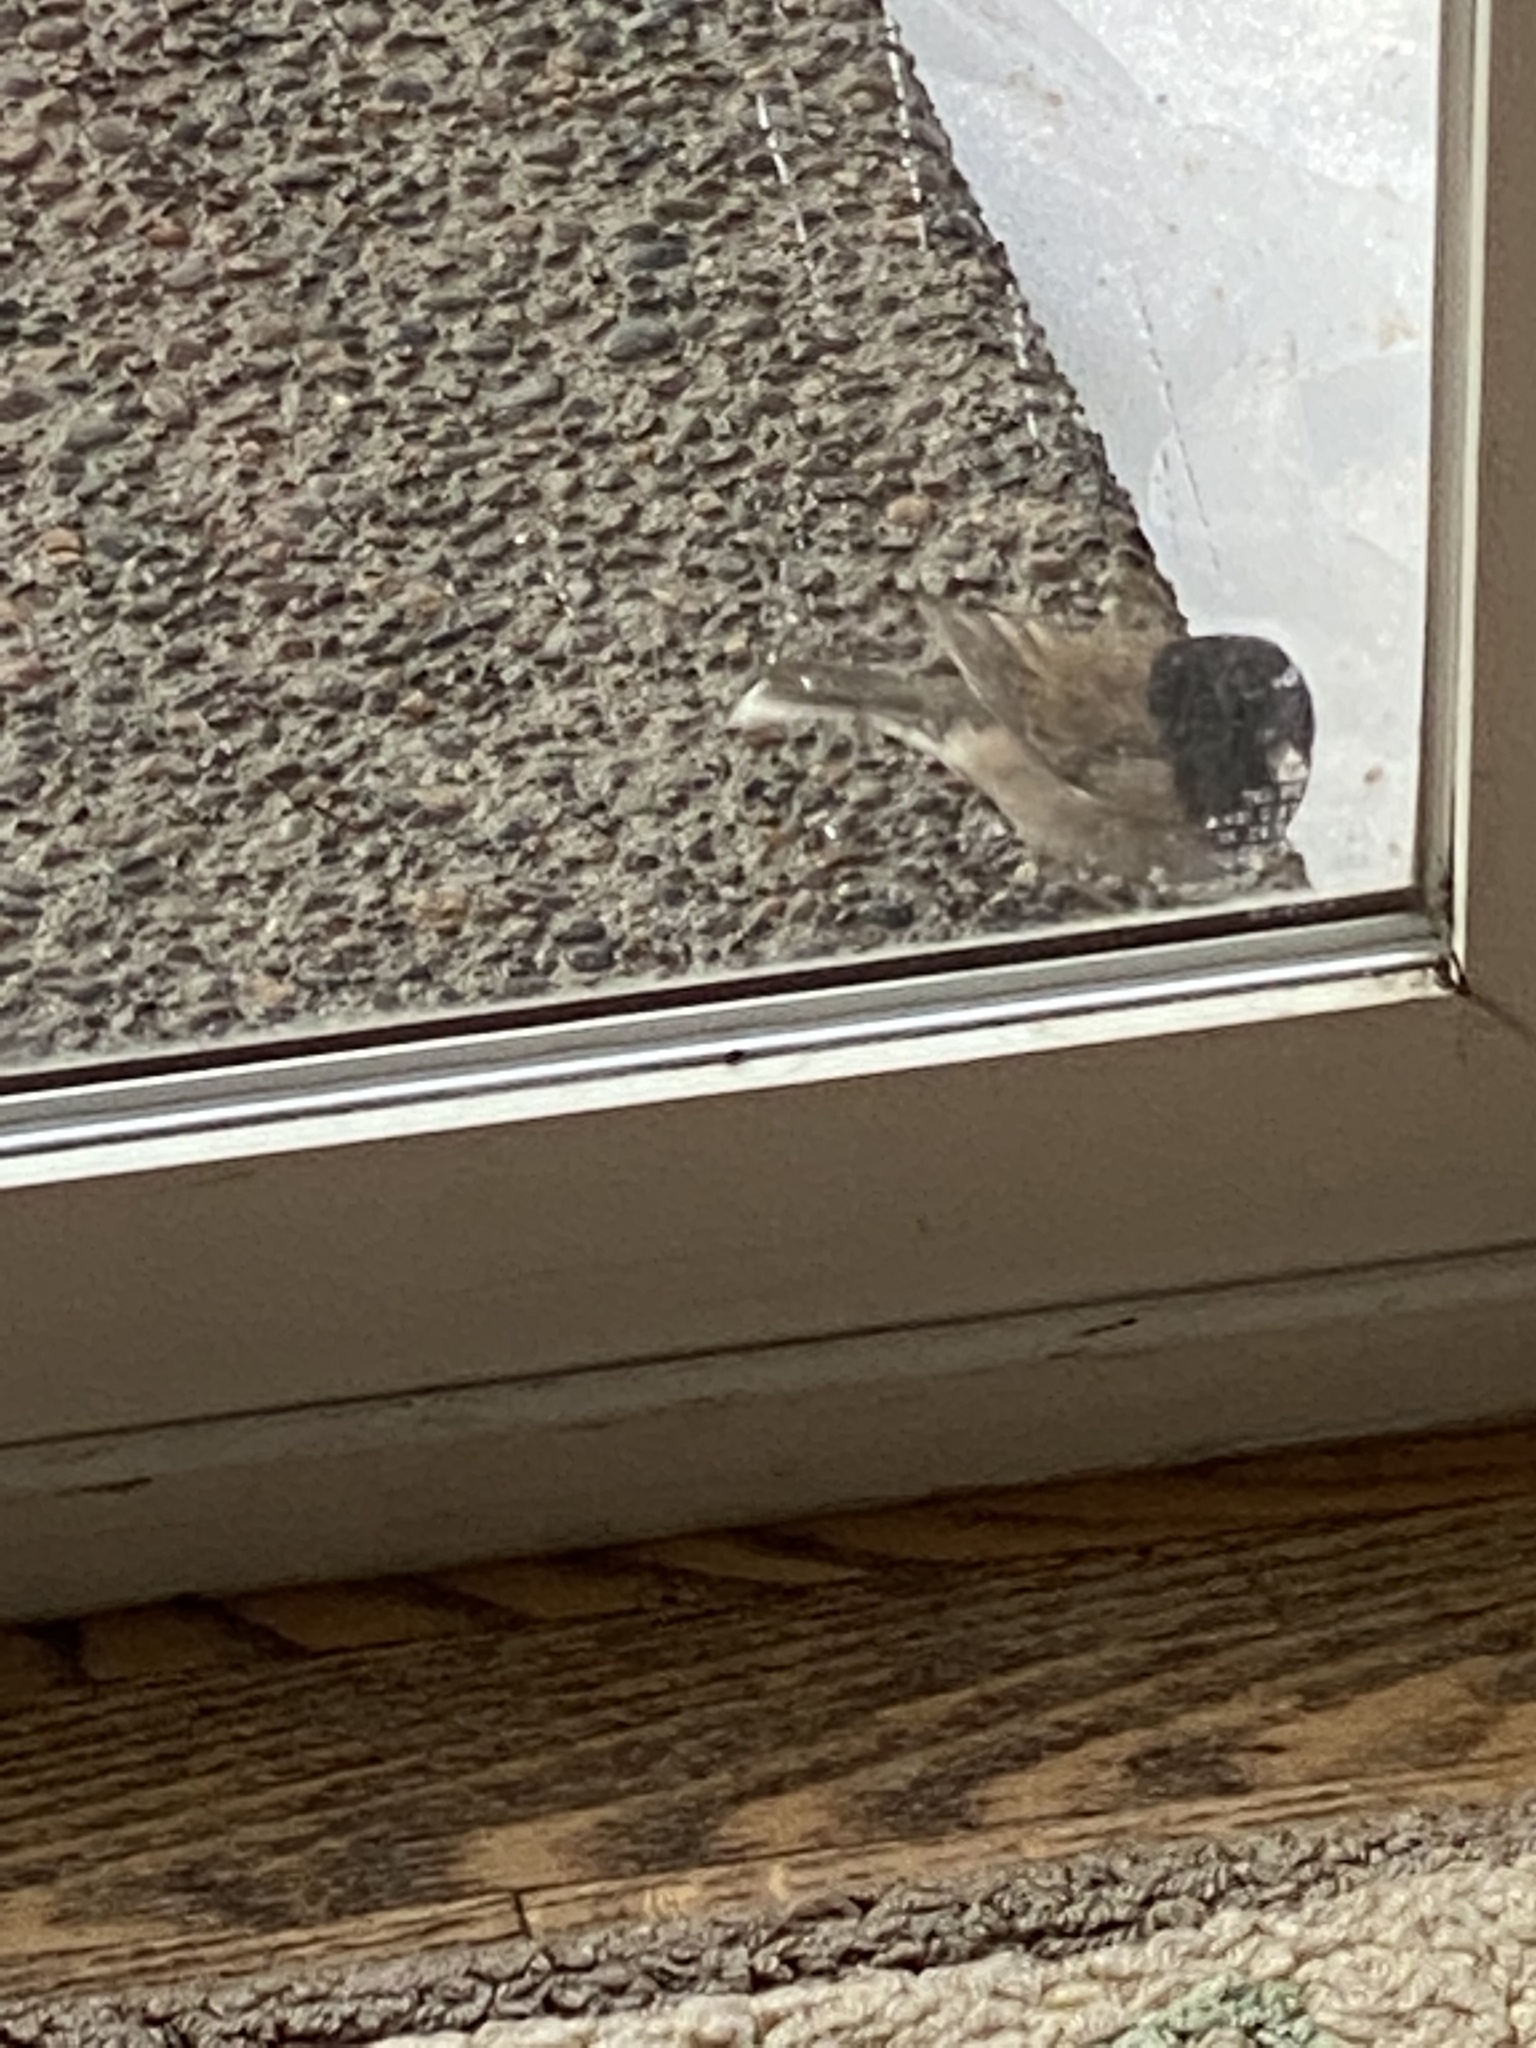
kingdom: Animalia
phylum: Chordata
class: Aves
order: Passeriformes
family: Passerellidae
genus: Junco
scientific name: Junco hyemalis
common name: Dark-eyed junco
